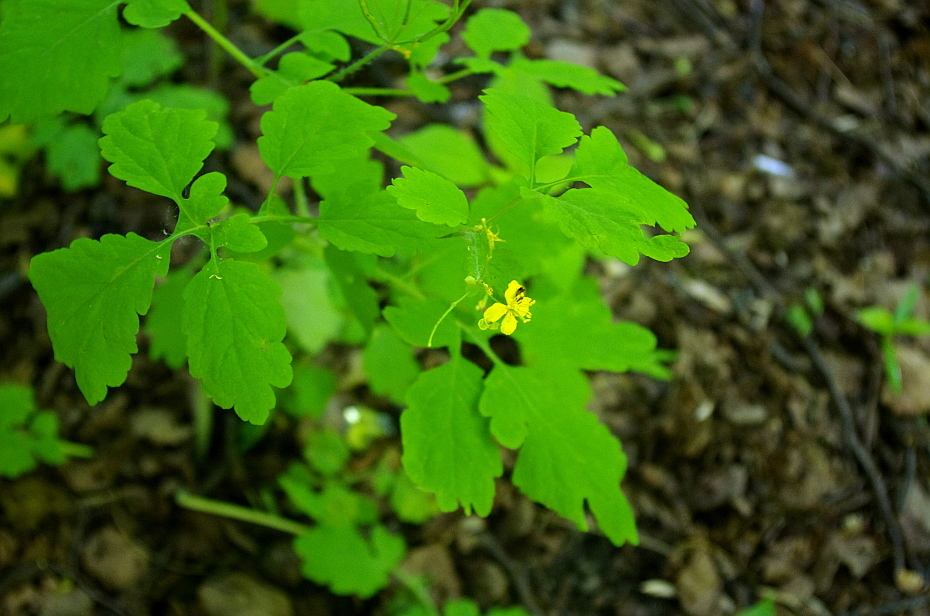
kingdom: Plantae
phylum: Tracheophyta
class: Magnoliopsida
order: Ranunculales
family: Papaveraceae
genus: Chelidonium
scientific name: Chelidonium majus
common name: Greater celandine
